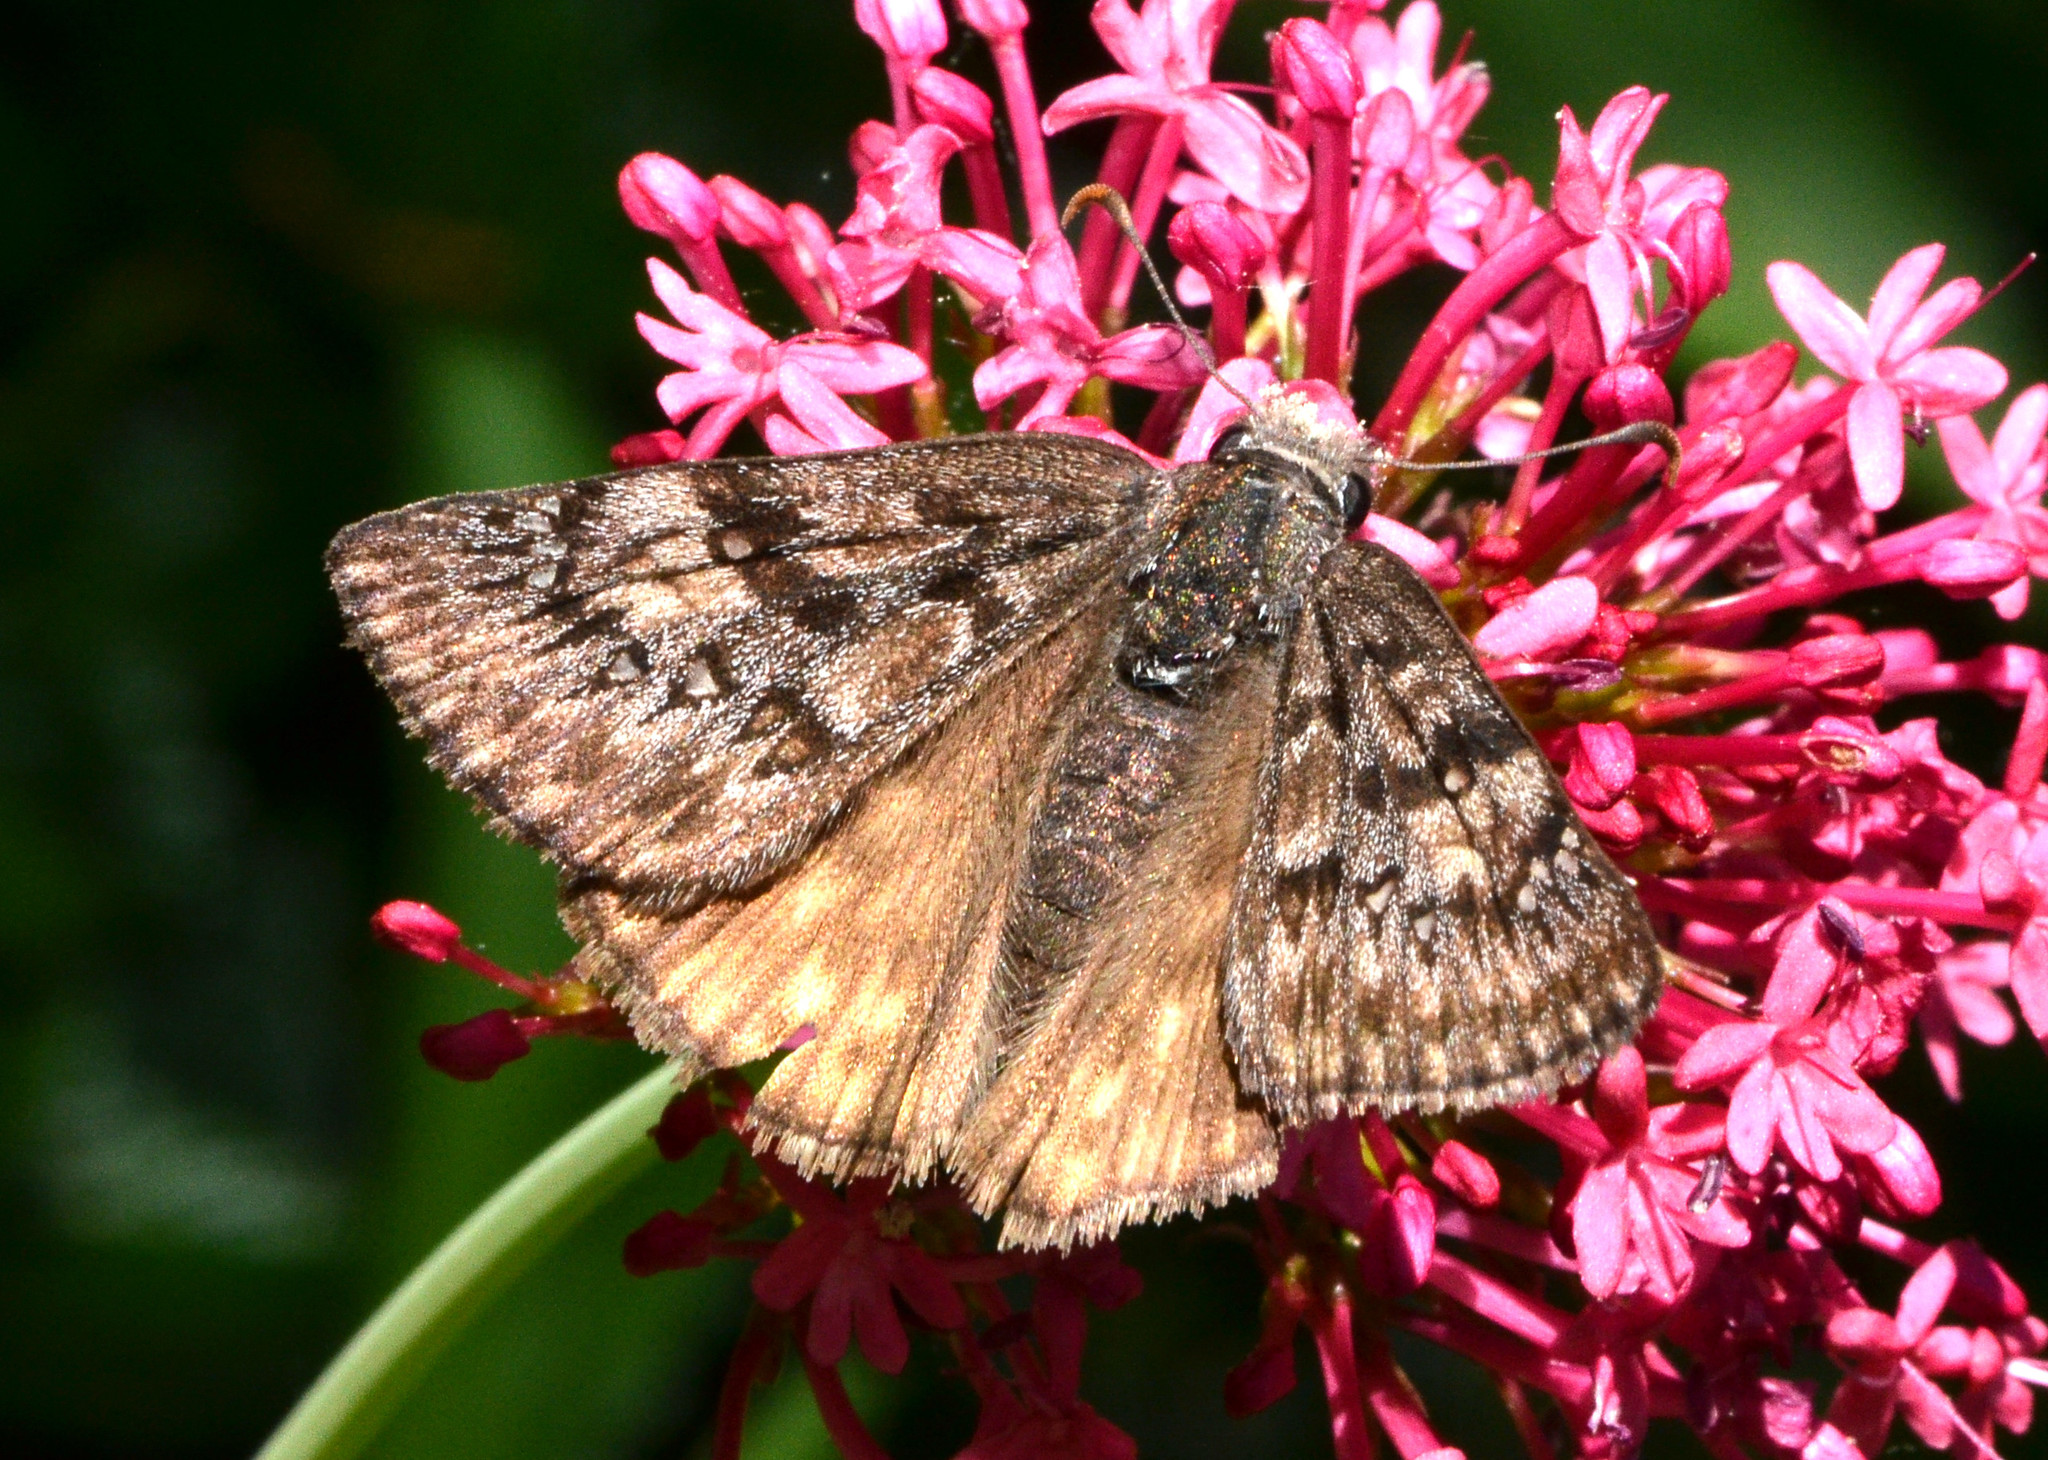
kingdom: Animalia
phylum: Arthropoda
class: Insecta
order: Lepidoptera
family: Hesperiidae
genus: Erynnis
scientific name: Erynnis propertius
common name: Propertius duskywing
